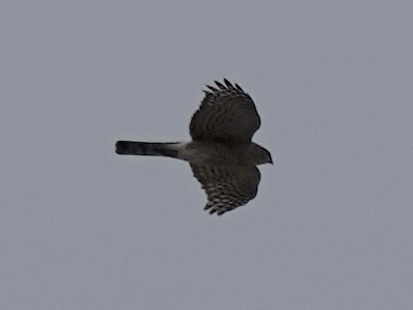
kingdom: Animalia
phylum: Chordata
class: Aves
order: Accipitriformes
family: Accipitridae
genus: Accipiter
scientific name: Accipiter striatus
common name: Sharp-shinned hawk
